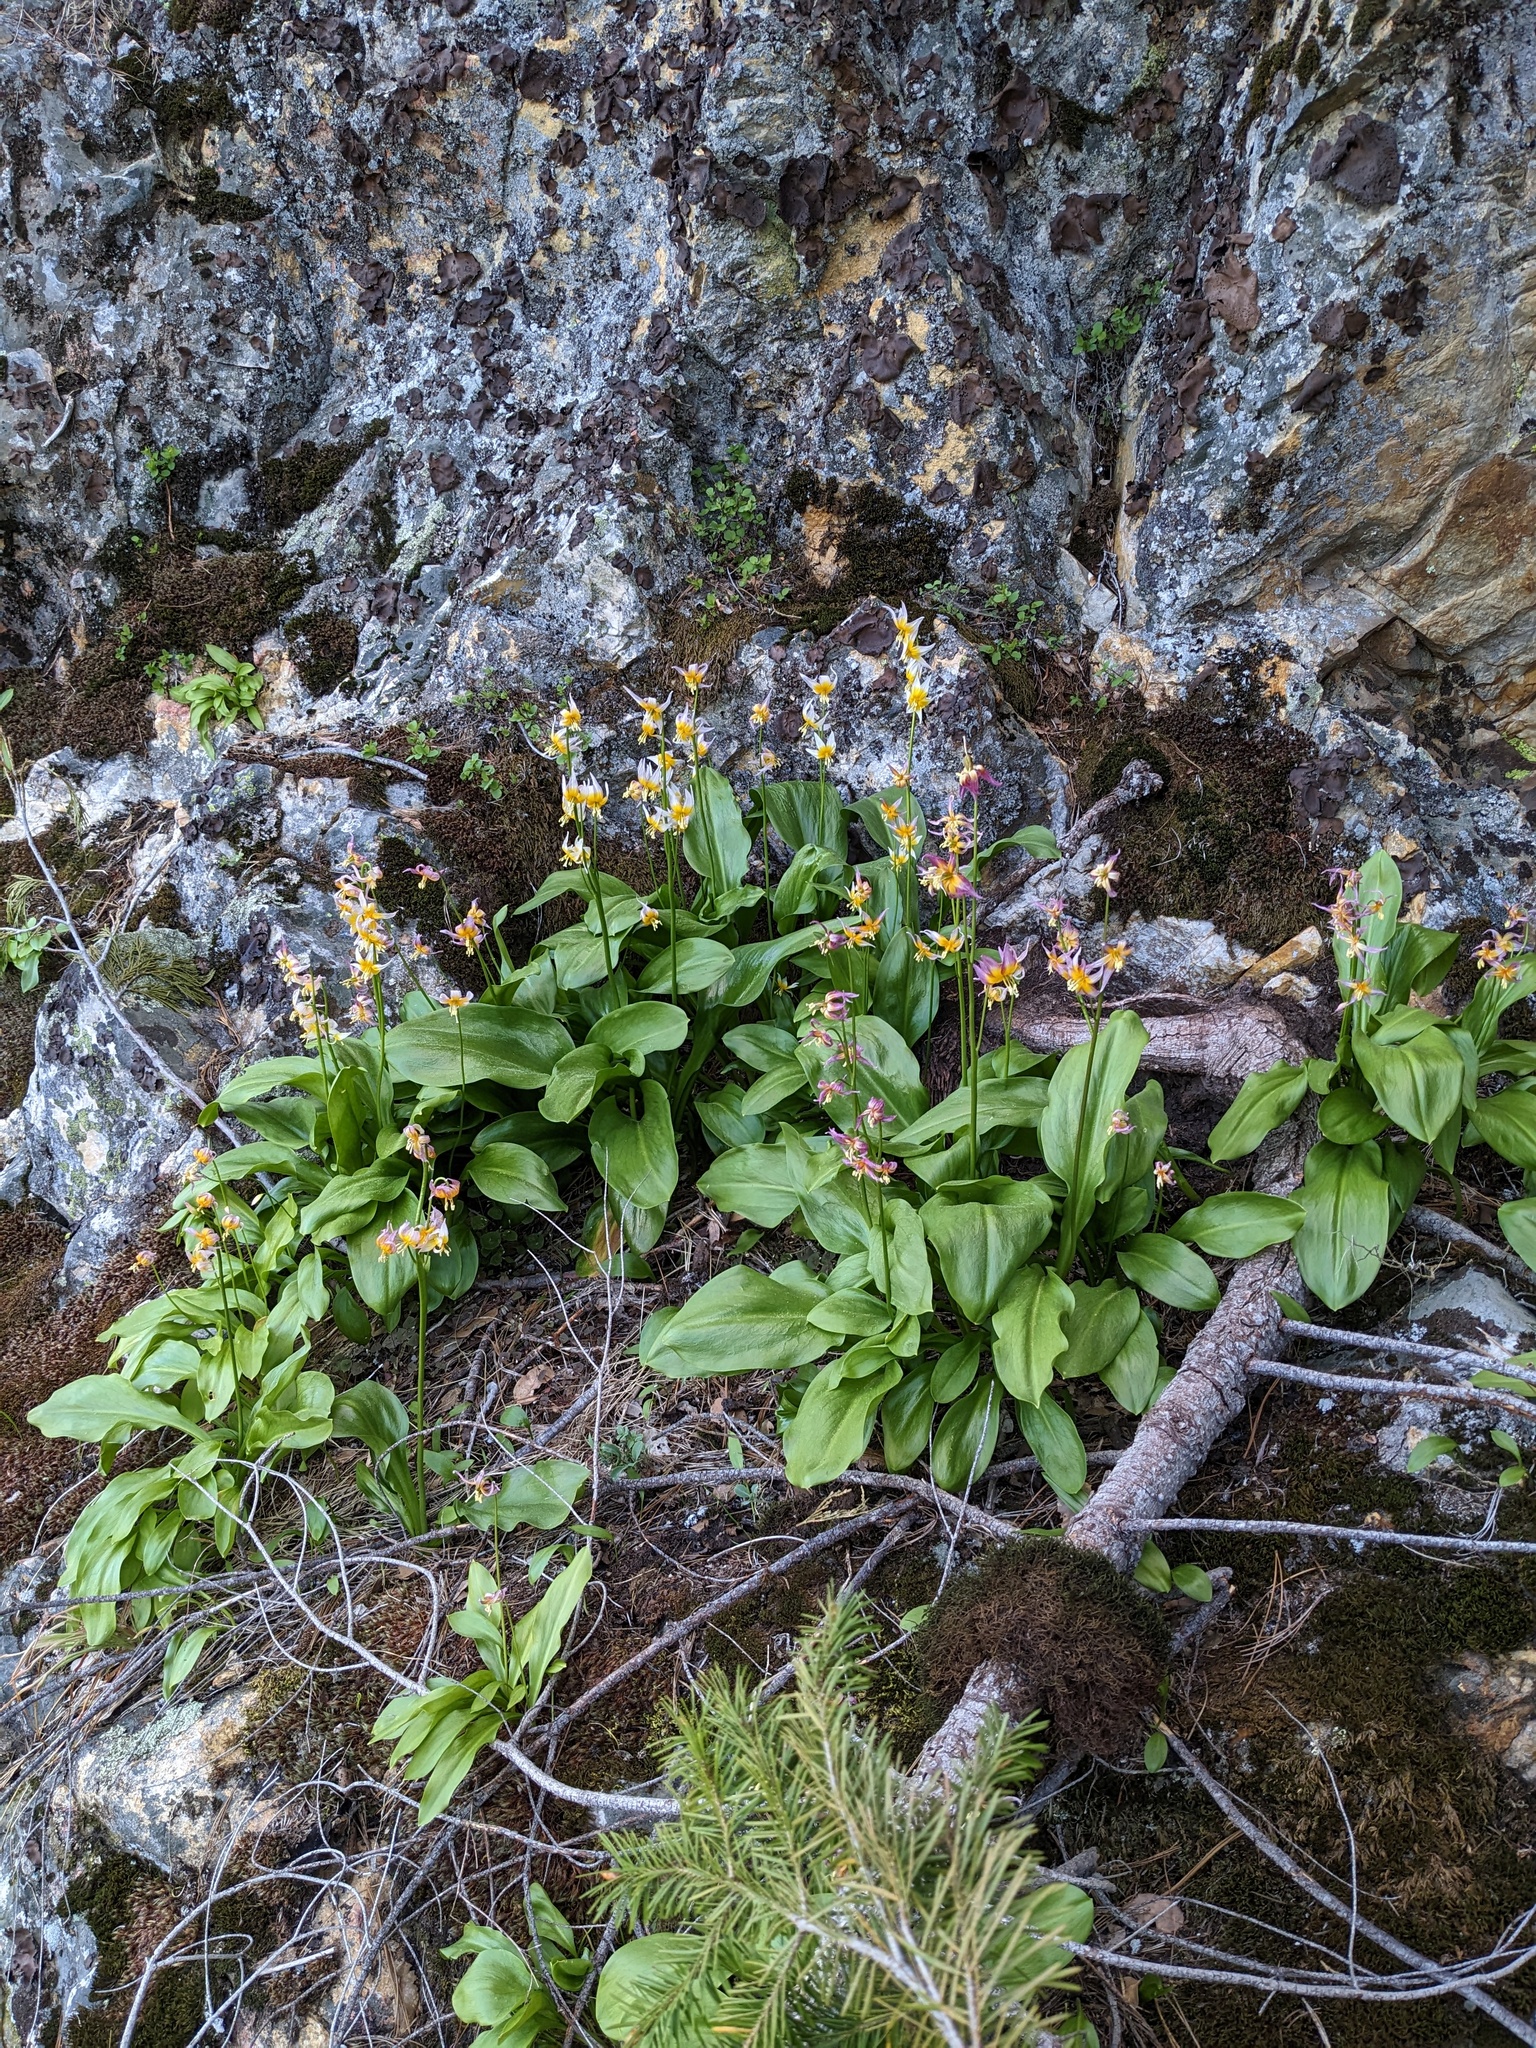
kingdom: Plantae
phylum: Tracheophyta
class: Liliopsida
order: Liliales
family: Liliaceae
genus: Erythronium
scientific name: Erythronium taylorii
